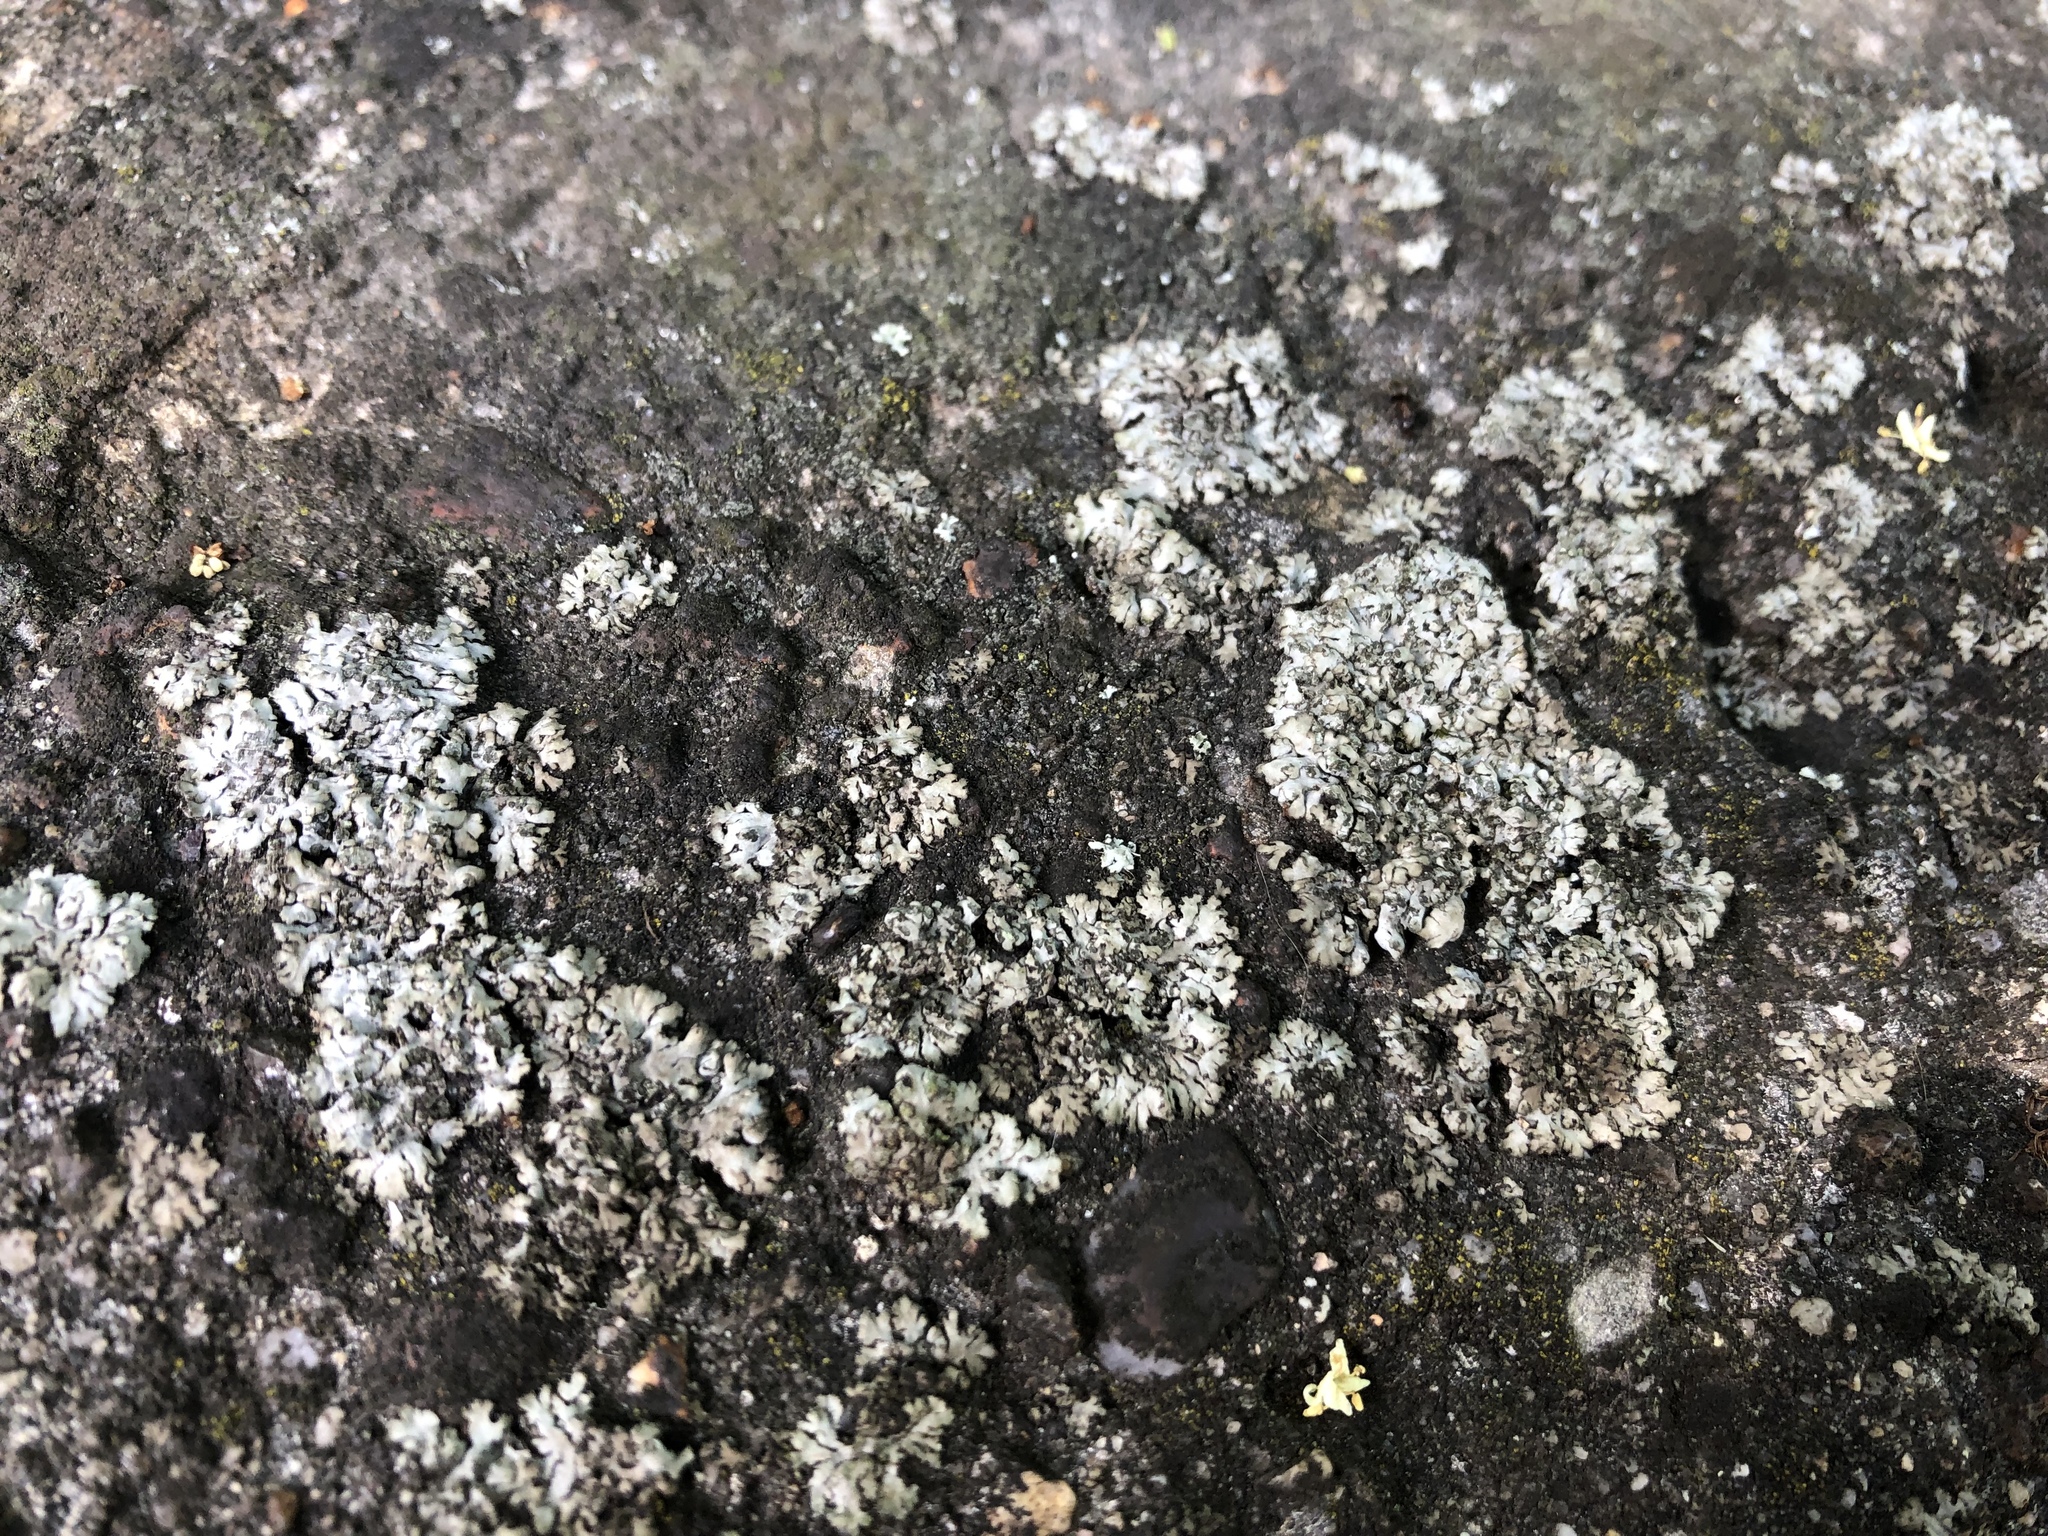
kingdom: Fungi
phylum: Ascomycota
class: Lecanoromycetes
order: Caliciales
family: Physciaceae
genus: Phaeophyscia
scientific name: Phaeophyscia orbicularis
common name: Mealy shadow lichen
